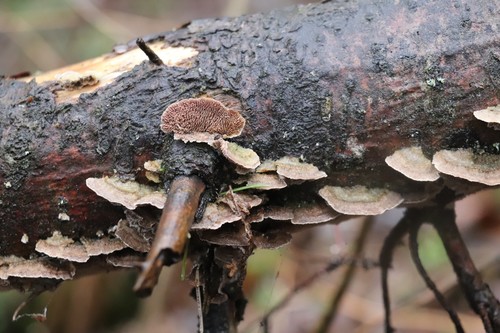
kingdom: Fungi
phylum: Basidiomycota
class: Agaricomycetes
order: Hymenochaetales
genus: Trichaptum
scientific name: Trichaptum fuscoviolaceum
